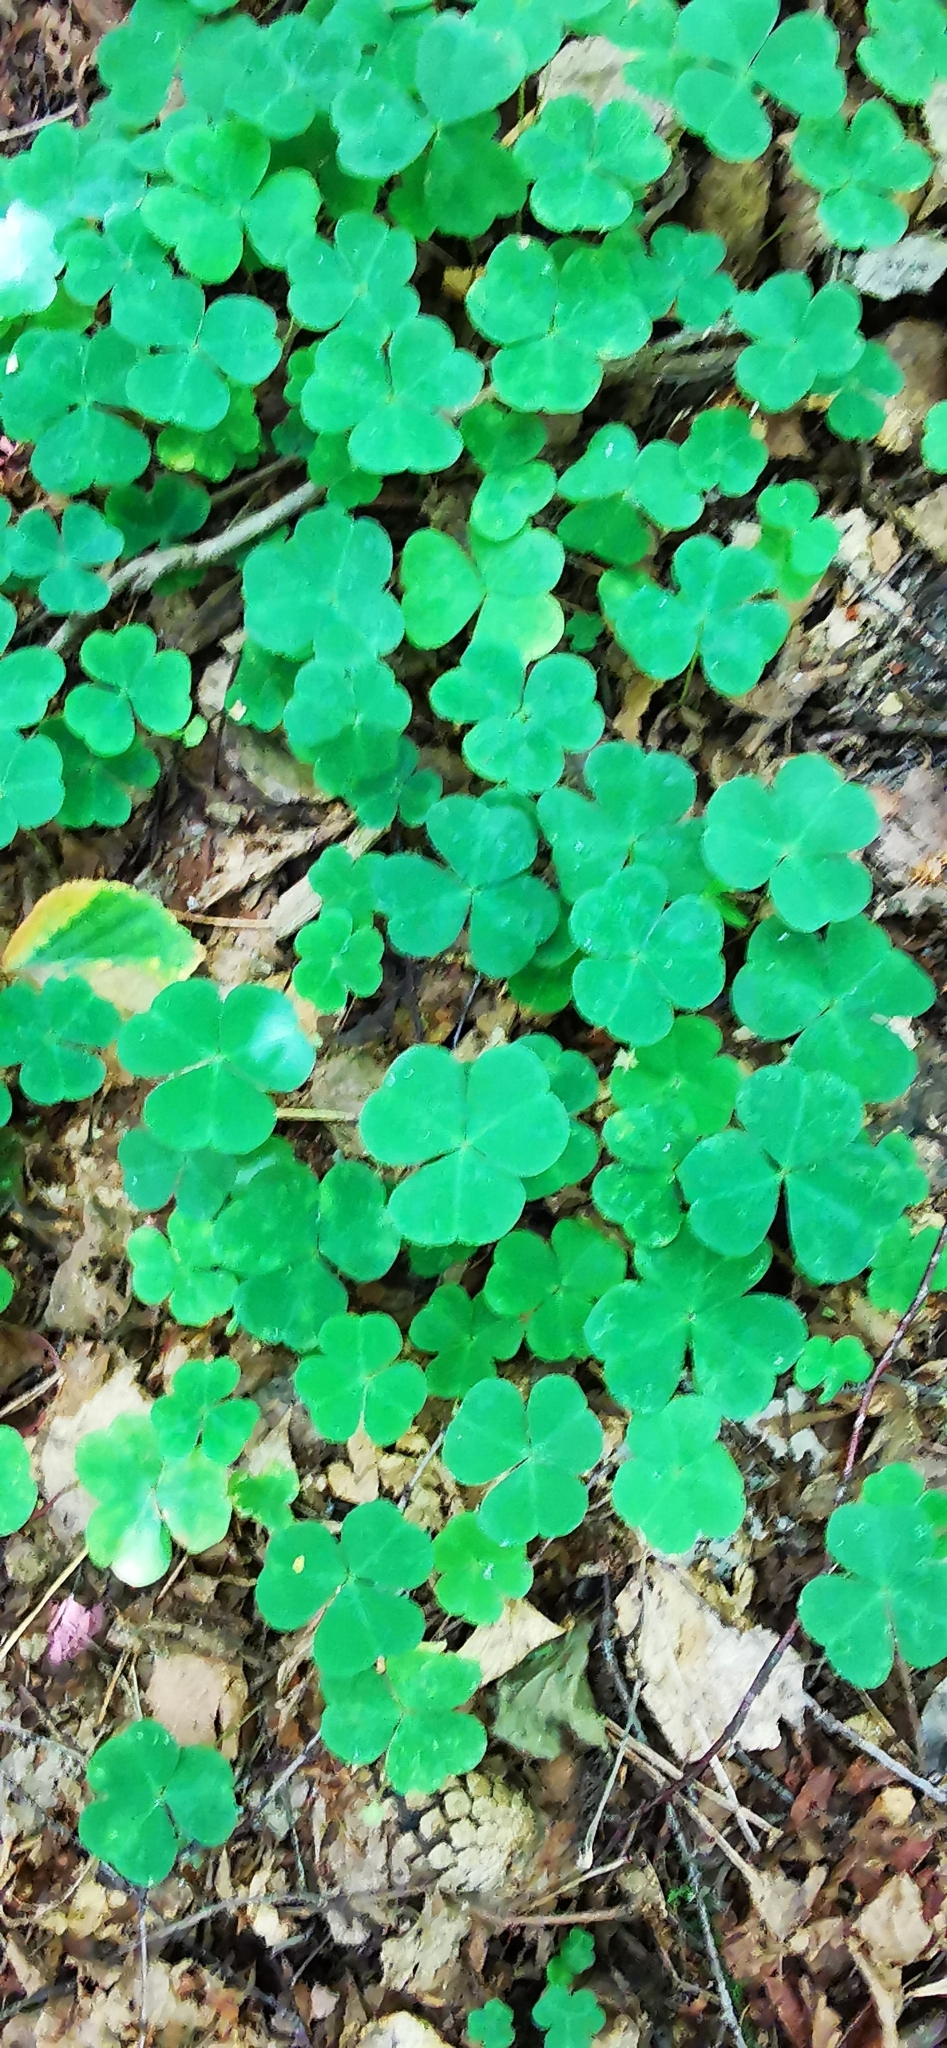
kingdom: Plantae
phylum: Tracheophyta
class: Magnoliopsida
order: Oxalidales
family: Oxalidaceae
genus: Oxalis
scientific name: Oxalis acetosella
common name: Wood-sorrel
